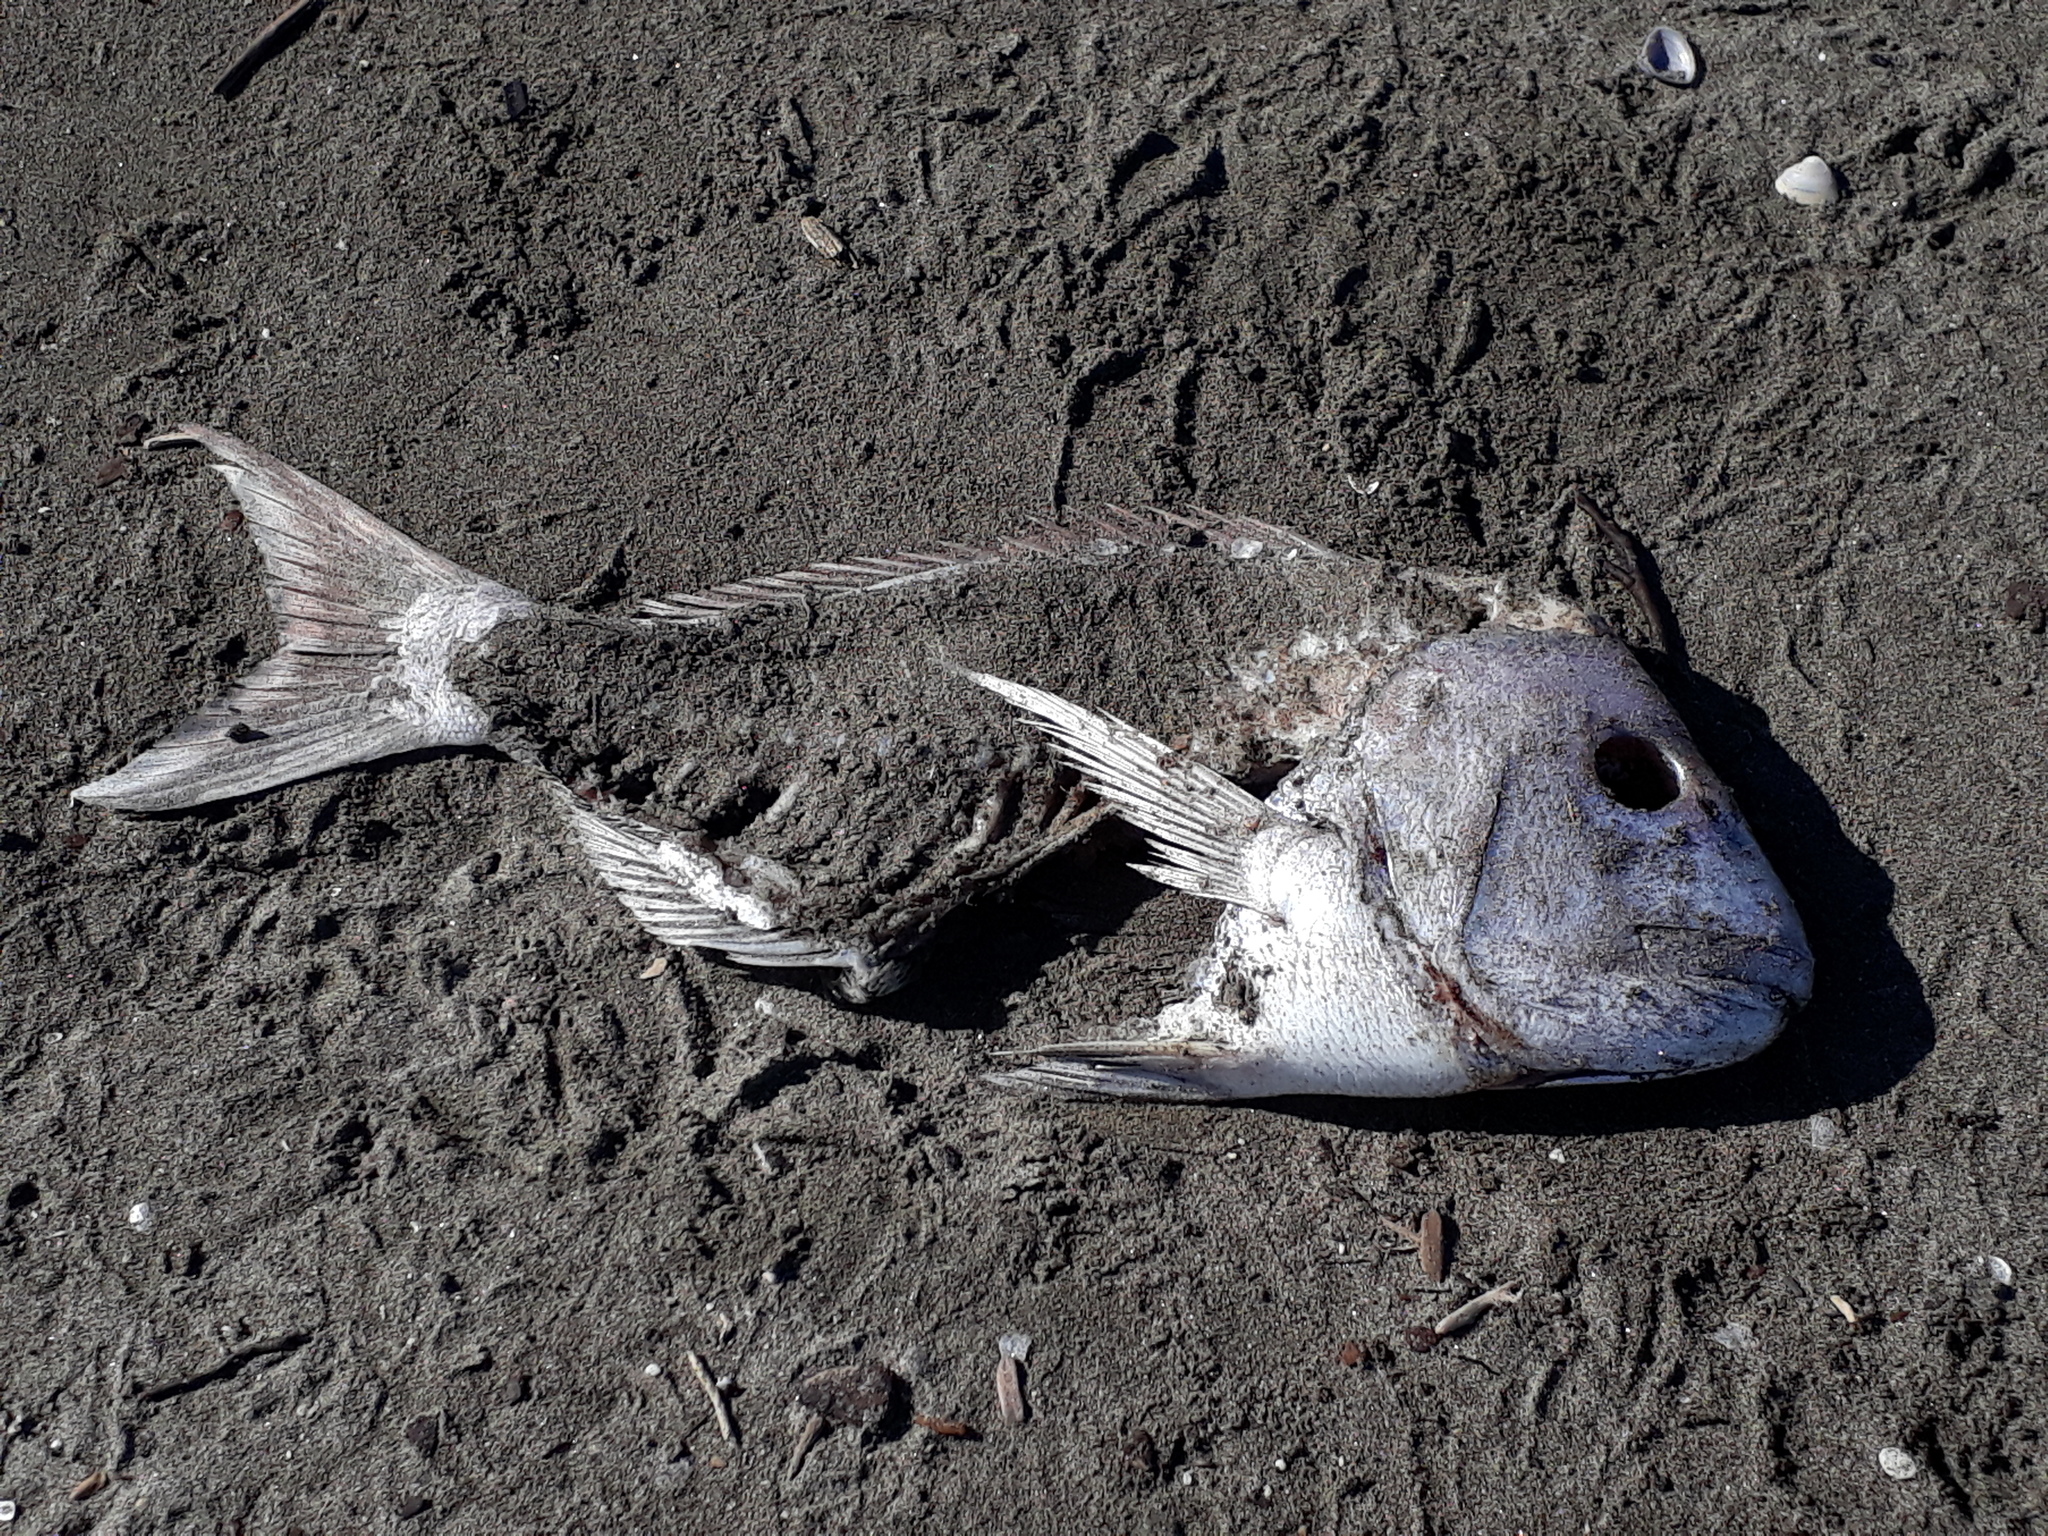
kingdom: Animalia
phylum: Chordata
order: Perciformes
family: Sparidae
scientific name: Sparidae
